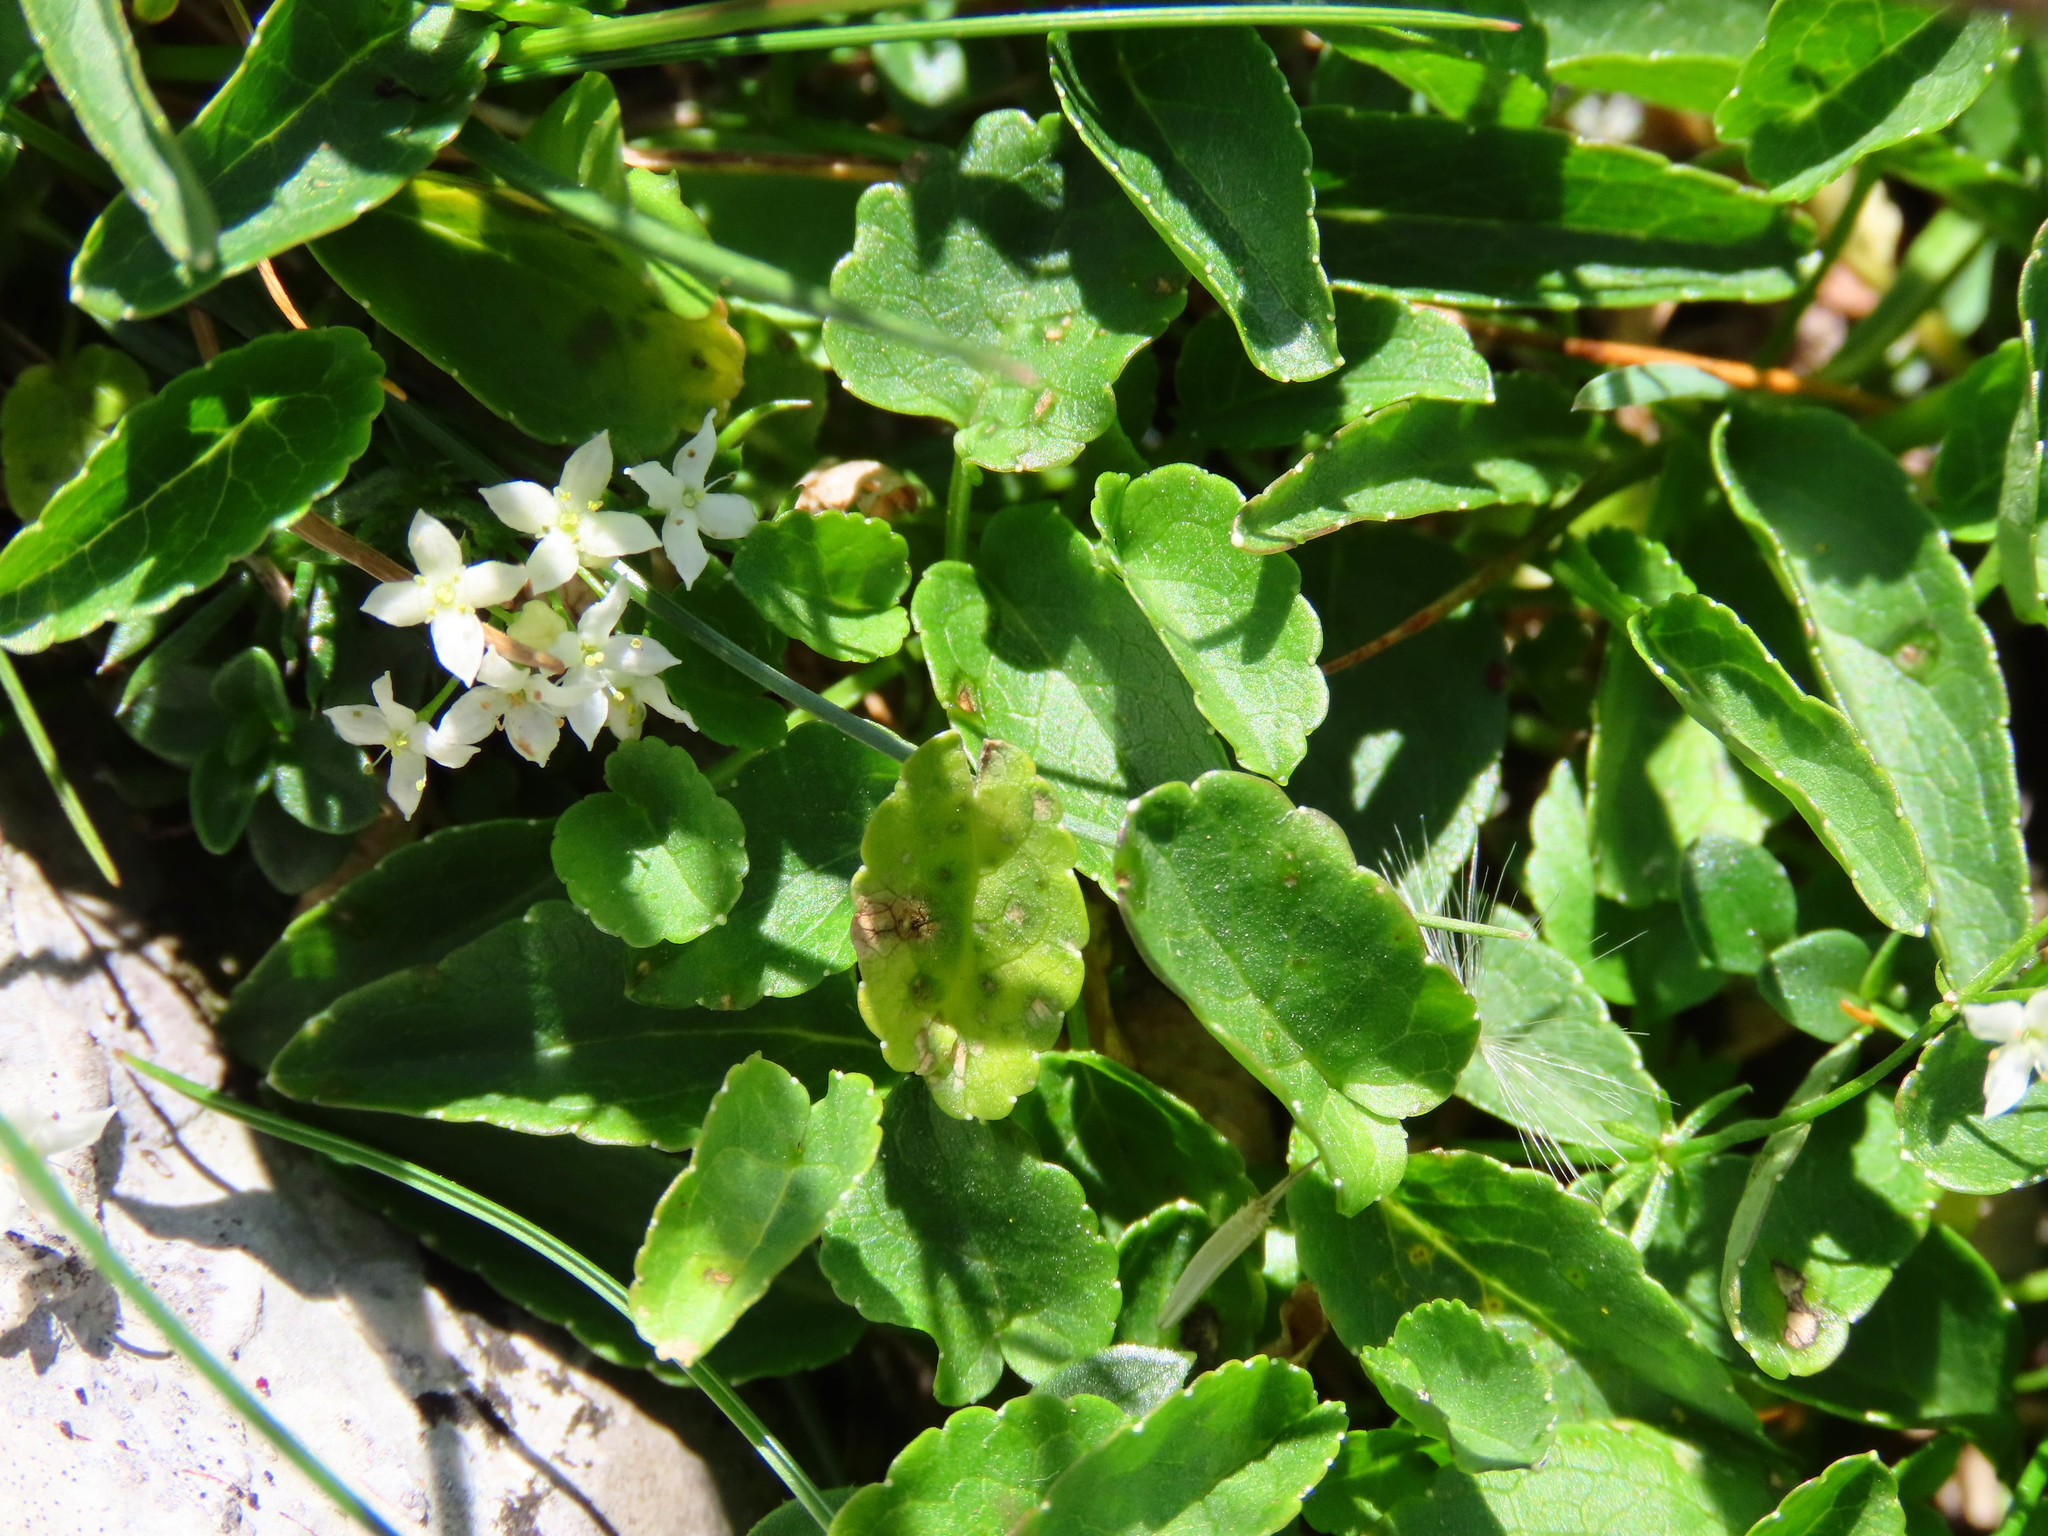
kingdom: Plantae
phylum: Tracheophyta
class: Magnoliopsida
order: Asterales
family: Campanulaceae
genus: Phyteuma
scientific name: Phyteuma orbiculare
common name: Round-headed rampion
